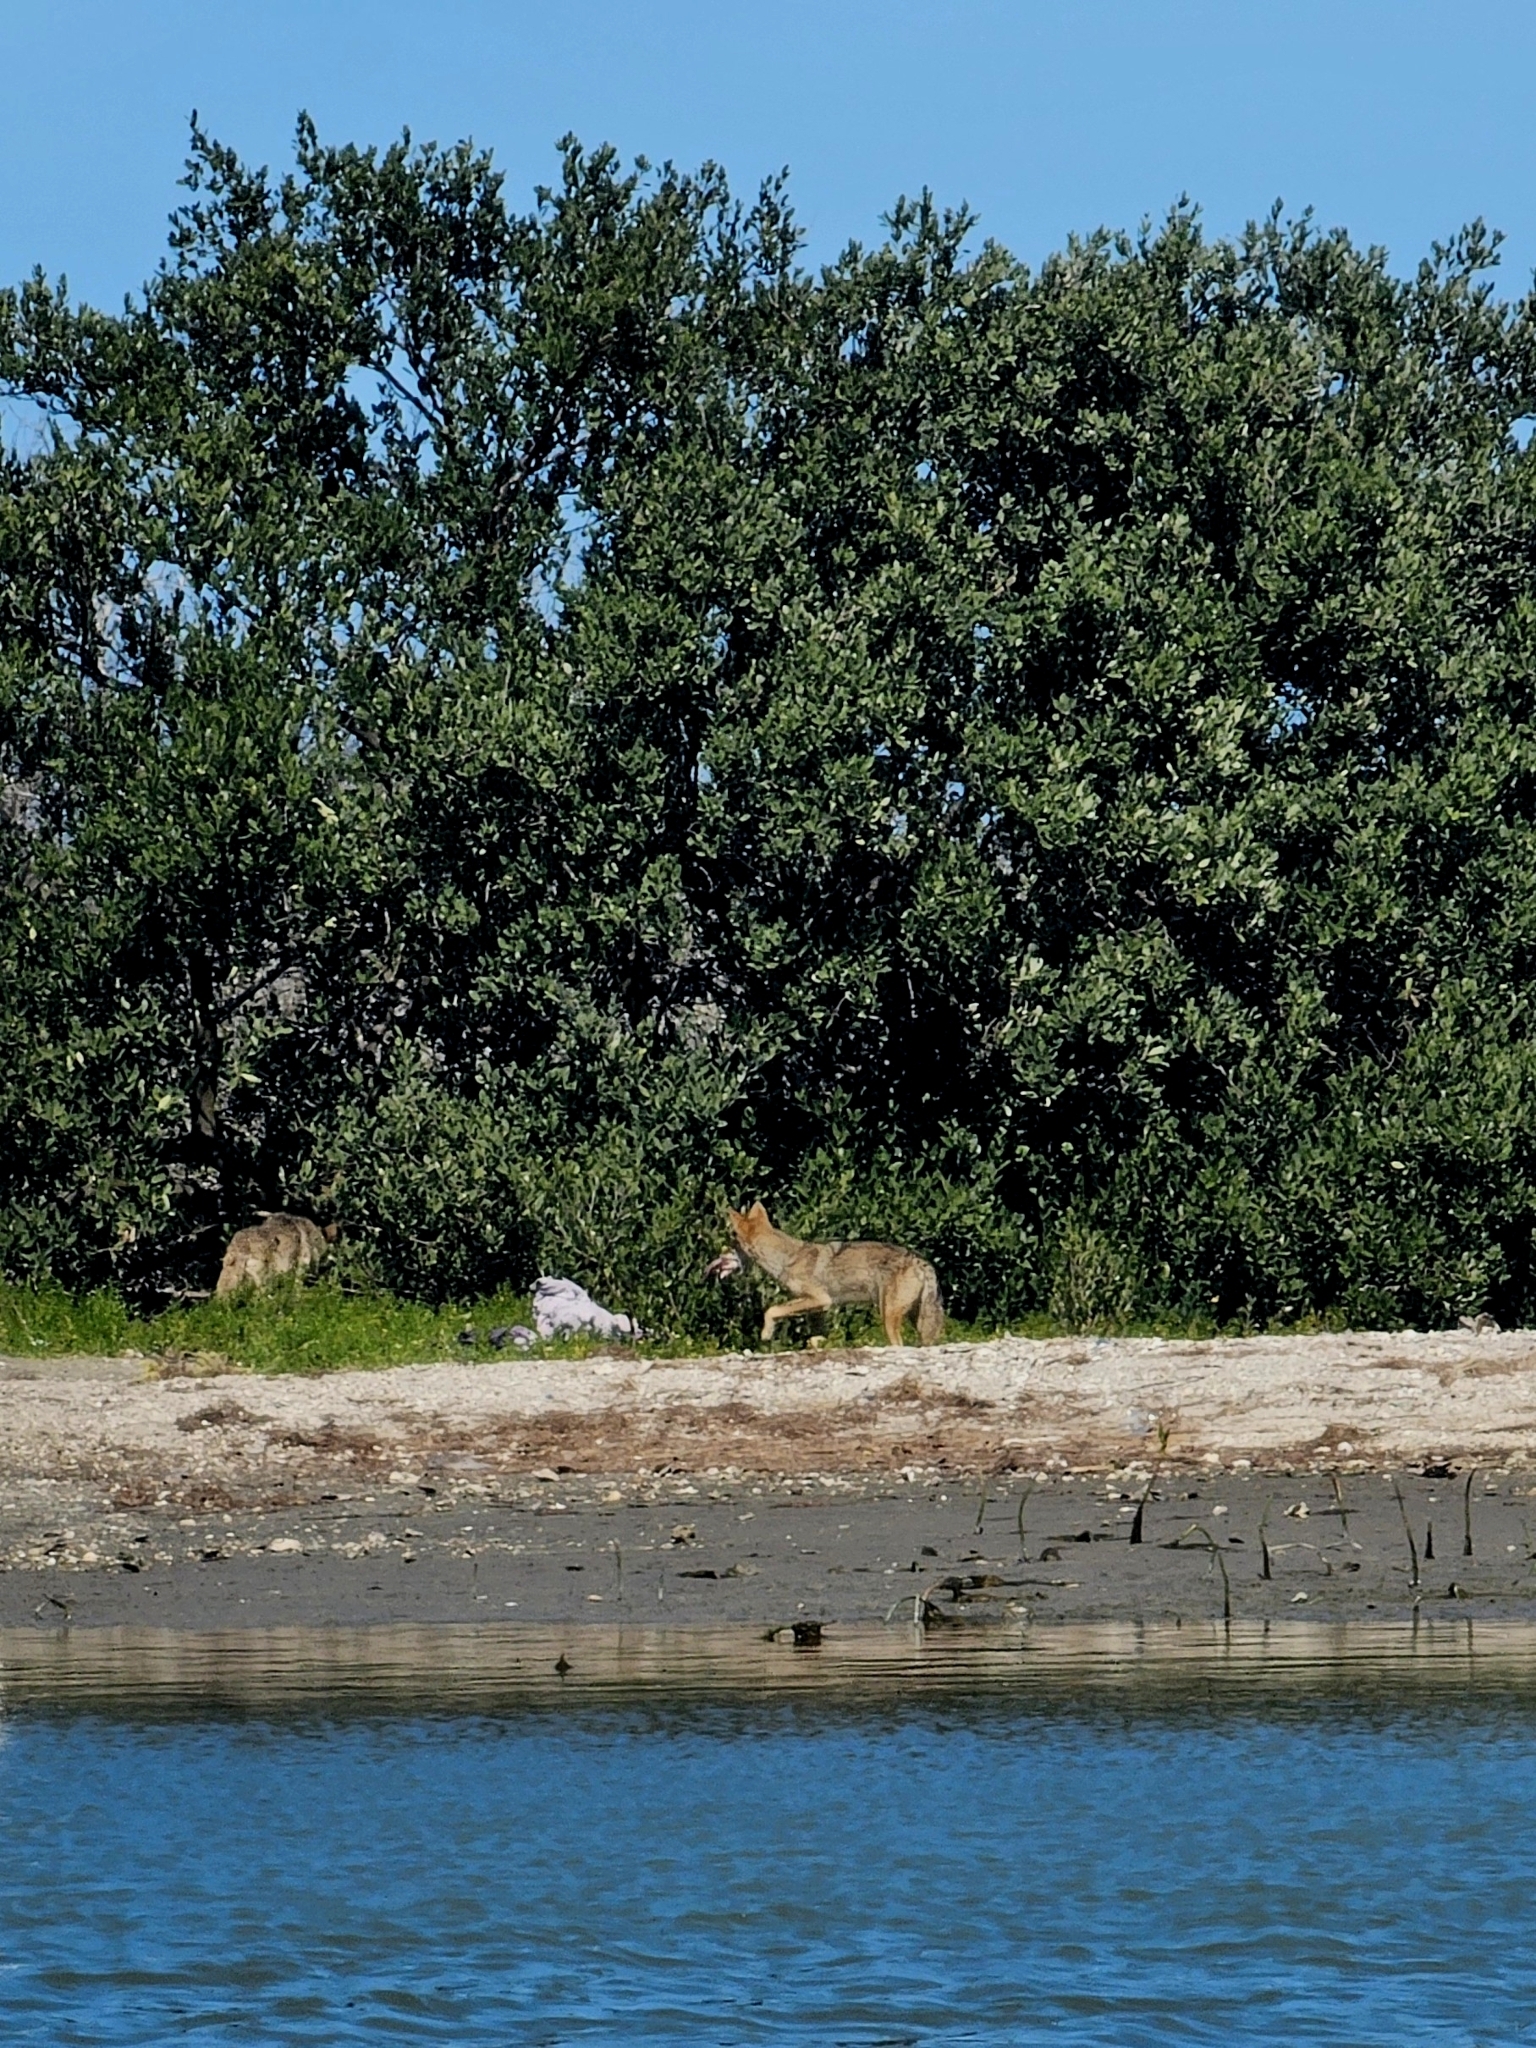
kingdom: Animalia
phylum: Chordata
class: Mammalia
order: Carnivora
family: Canidae
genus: Canis
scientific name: Canis latrans
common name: Coyote
